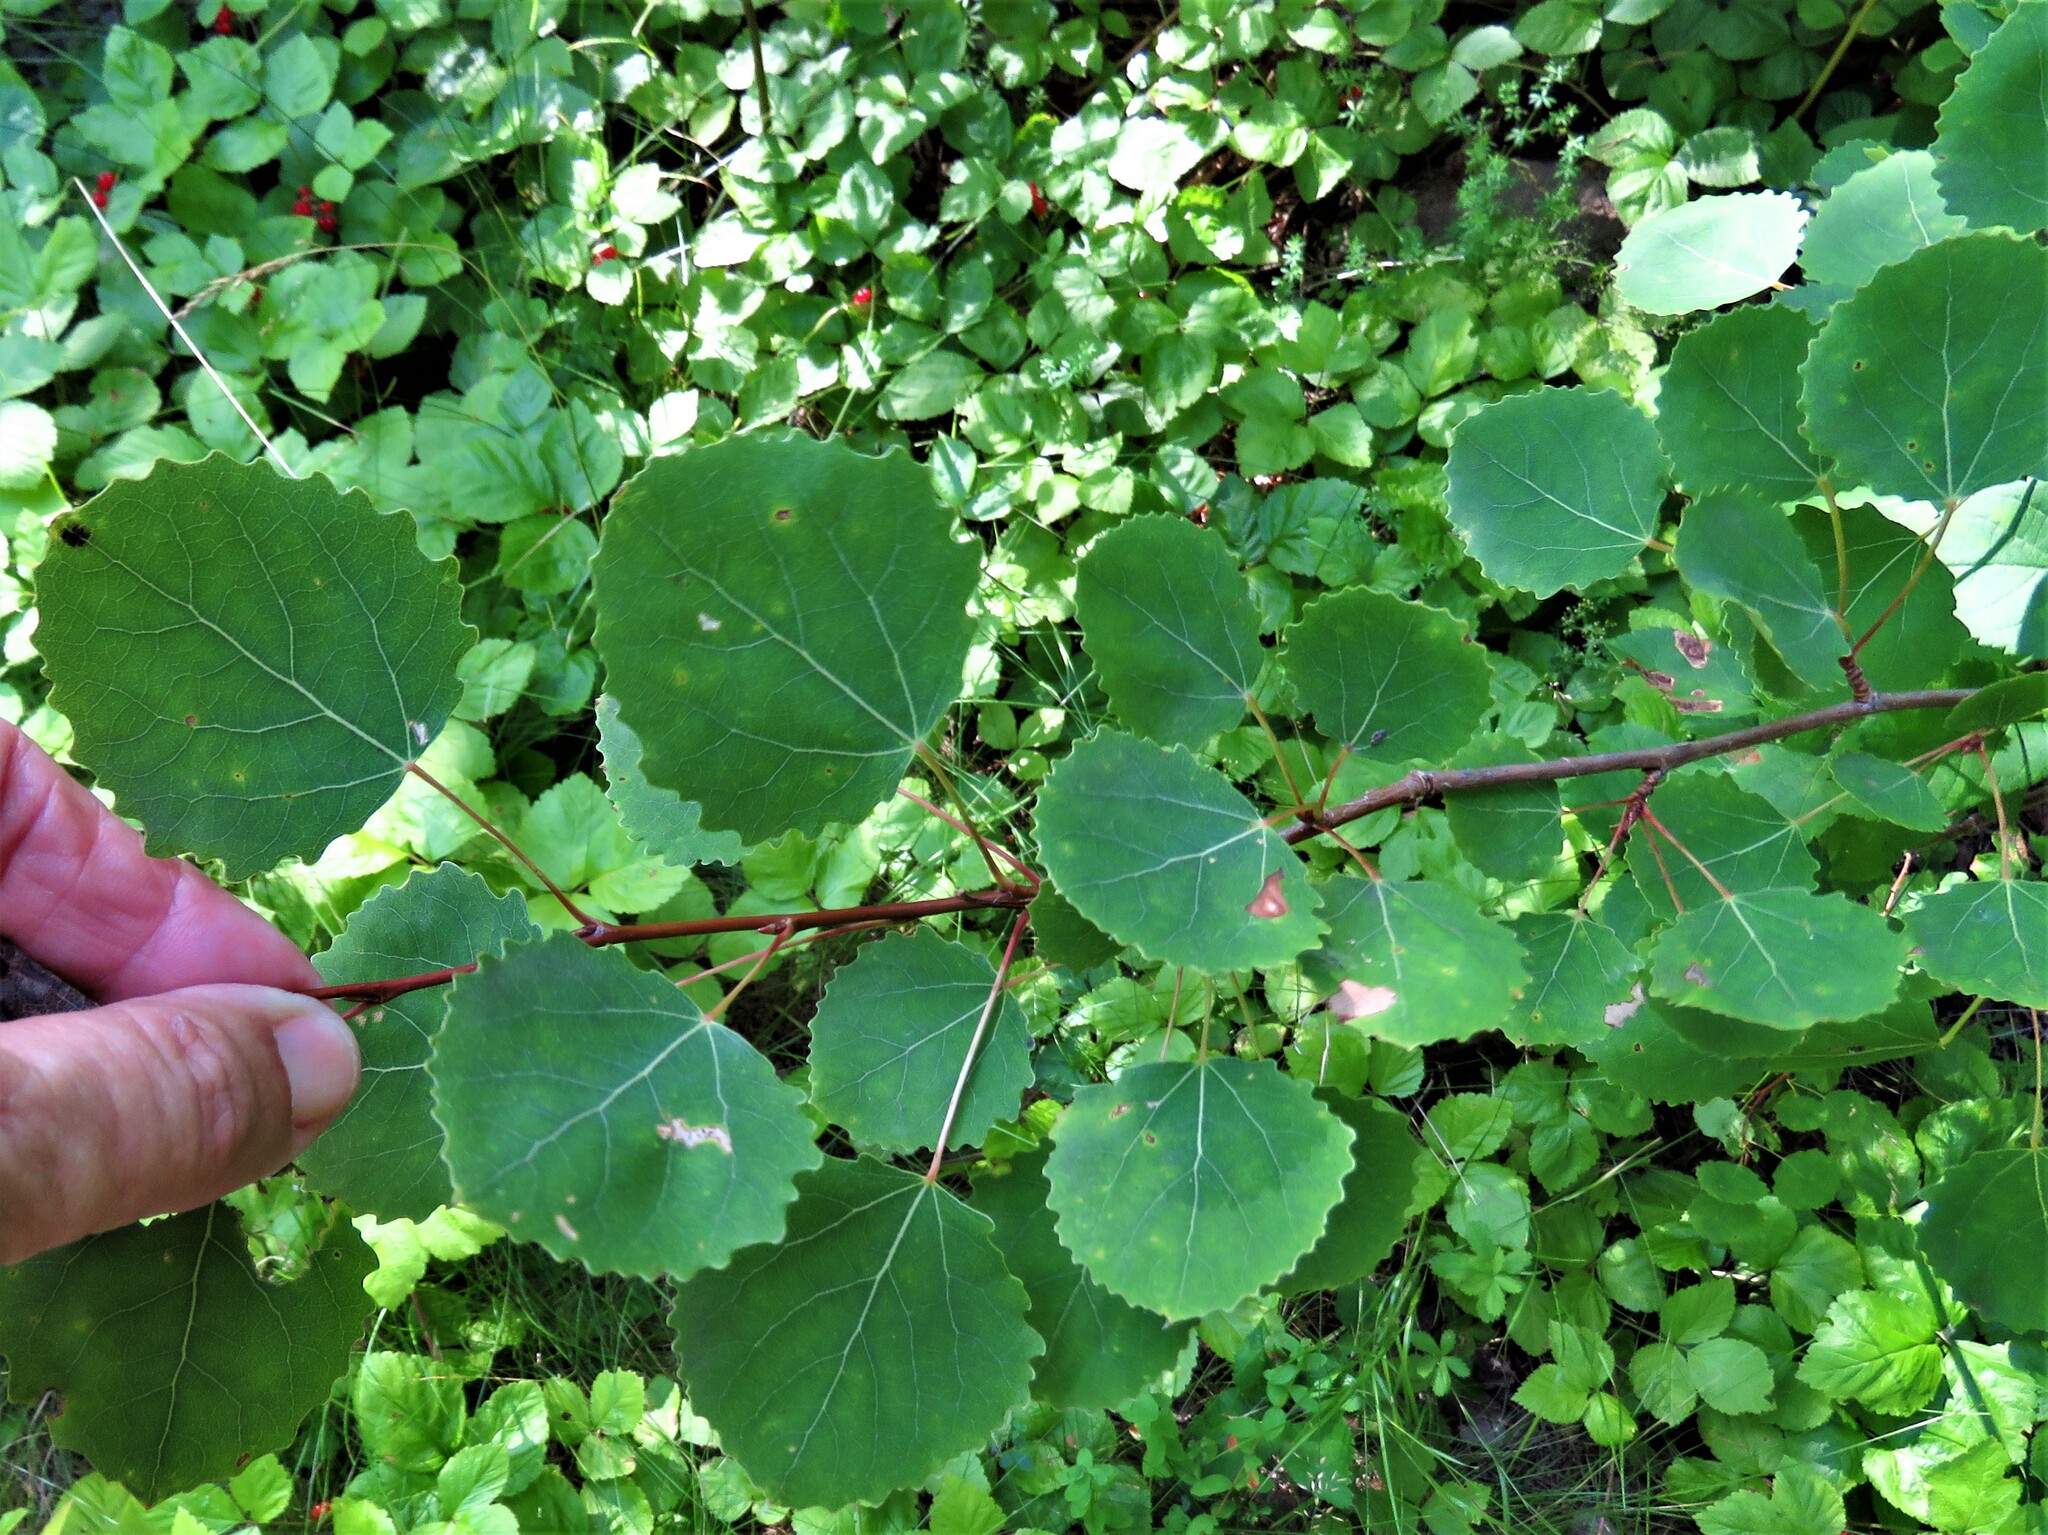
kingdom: Plantae
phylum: Tracheophyta
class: Magnoliopsida
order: Malpighiales
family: Salicaceae
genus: Populus
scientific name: Populus tremula
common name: European aspen
